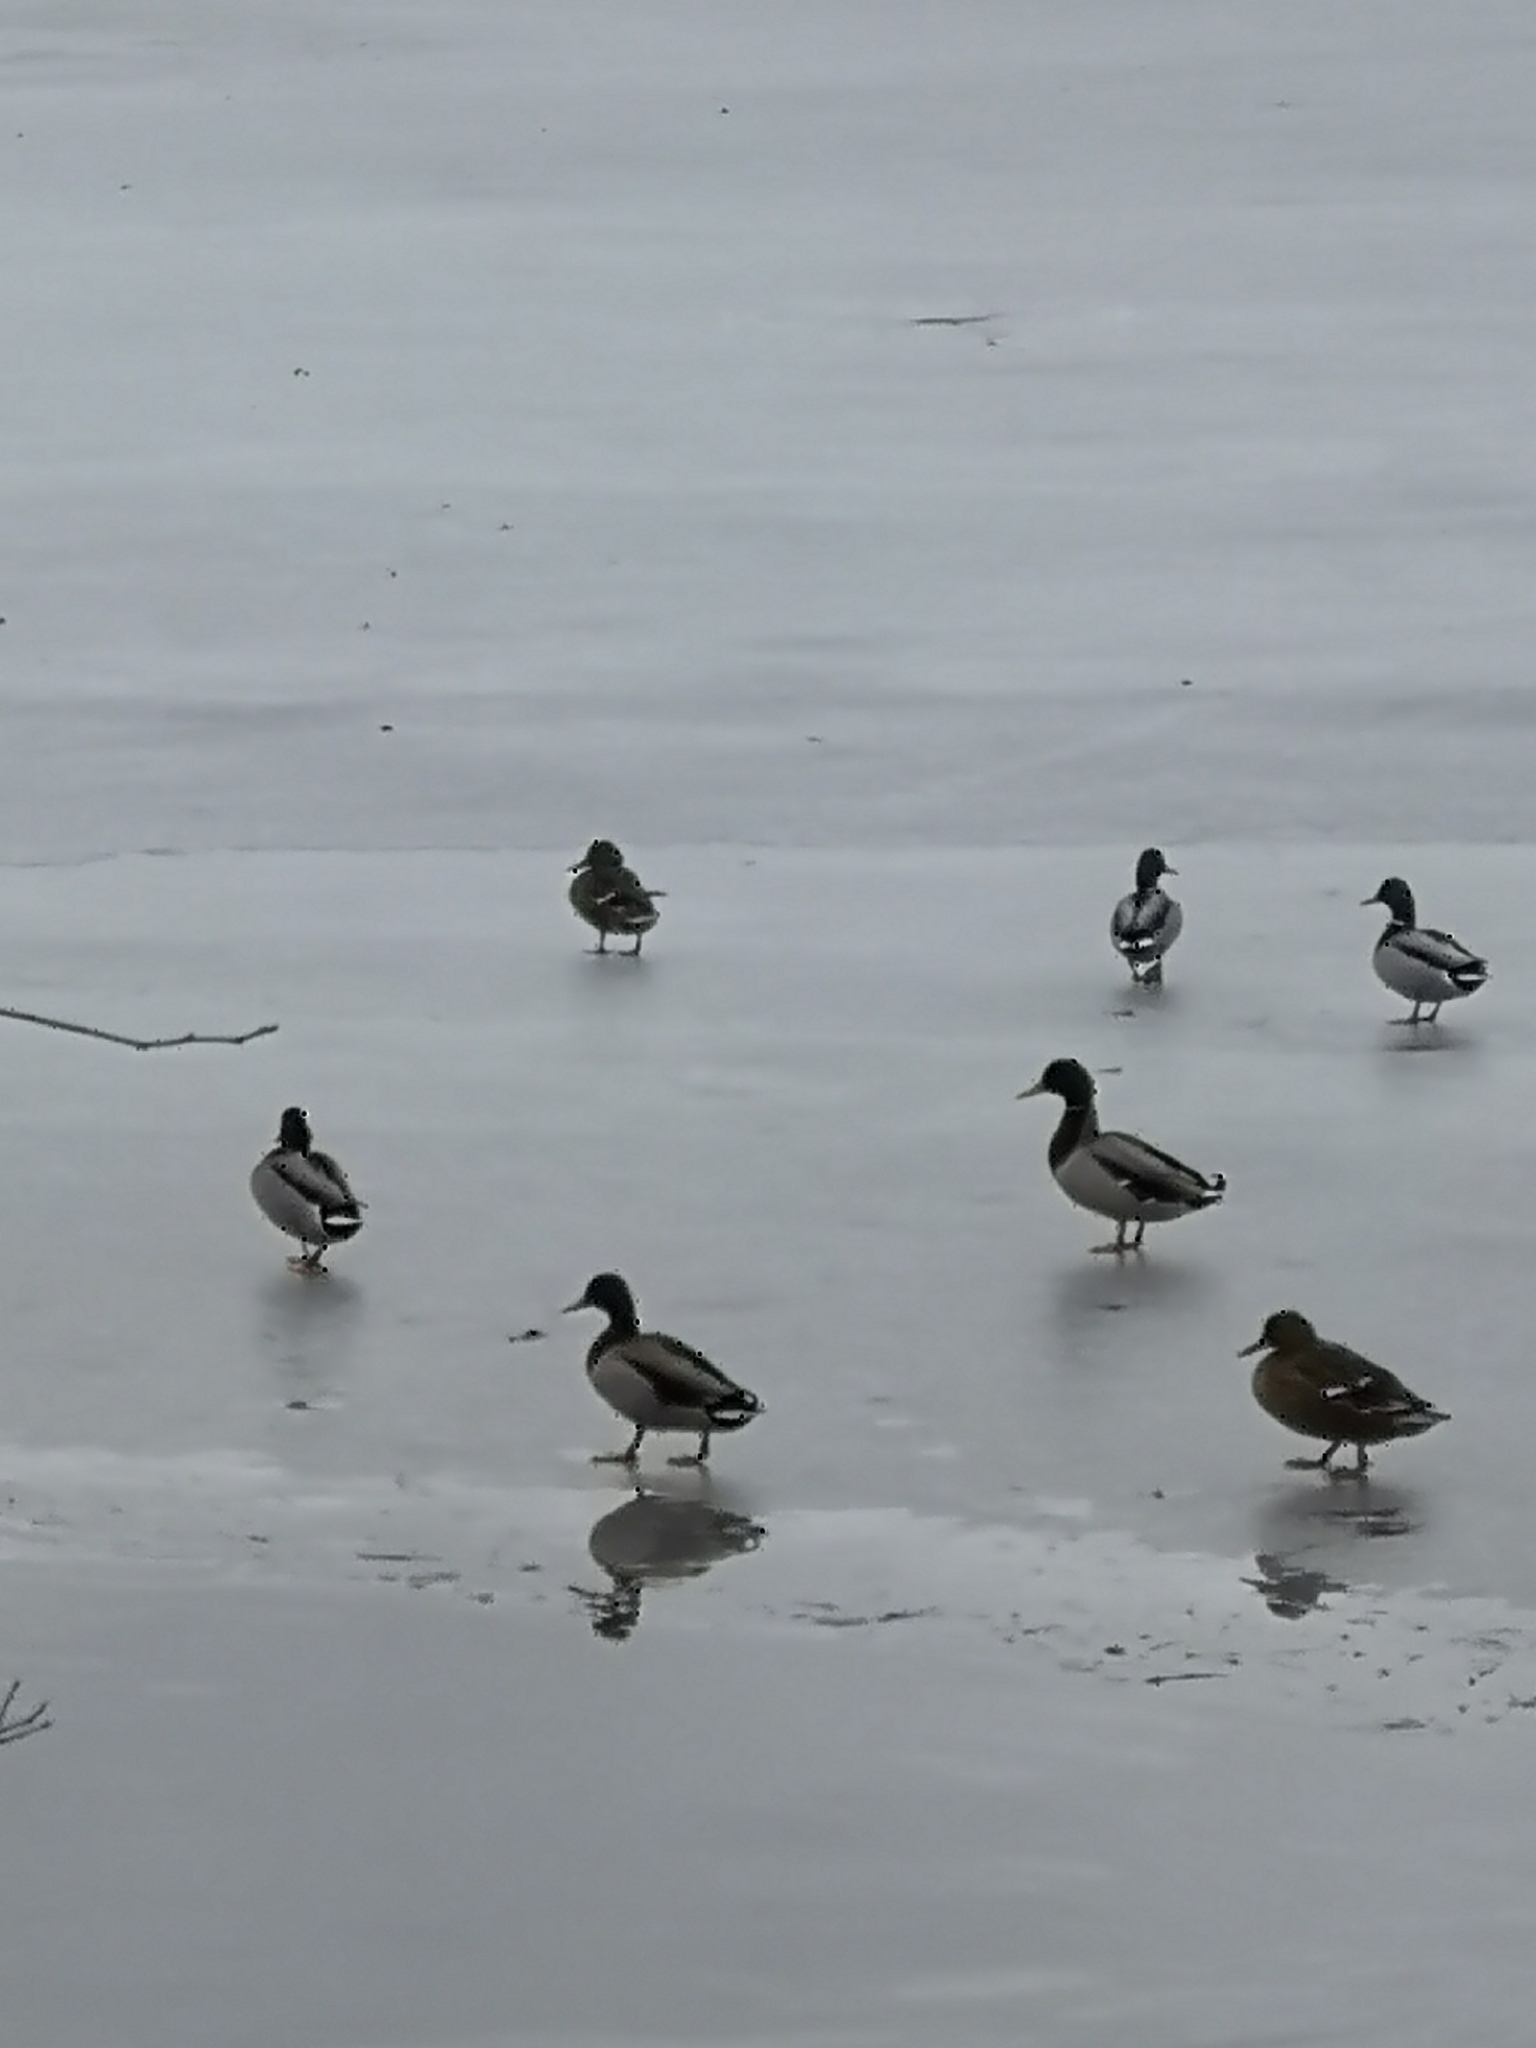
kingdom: Animalia
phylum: Chordata
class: Aves
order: Anseriformes
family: Anatidae
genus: Anas
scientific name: Anas platyrhynchos
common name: Mallard
